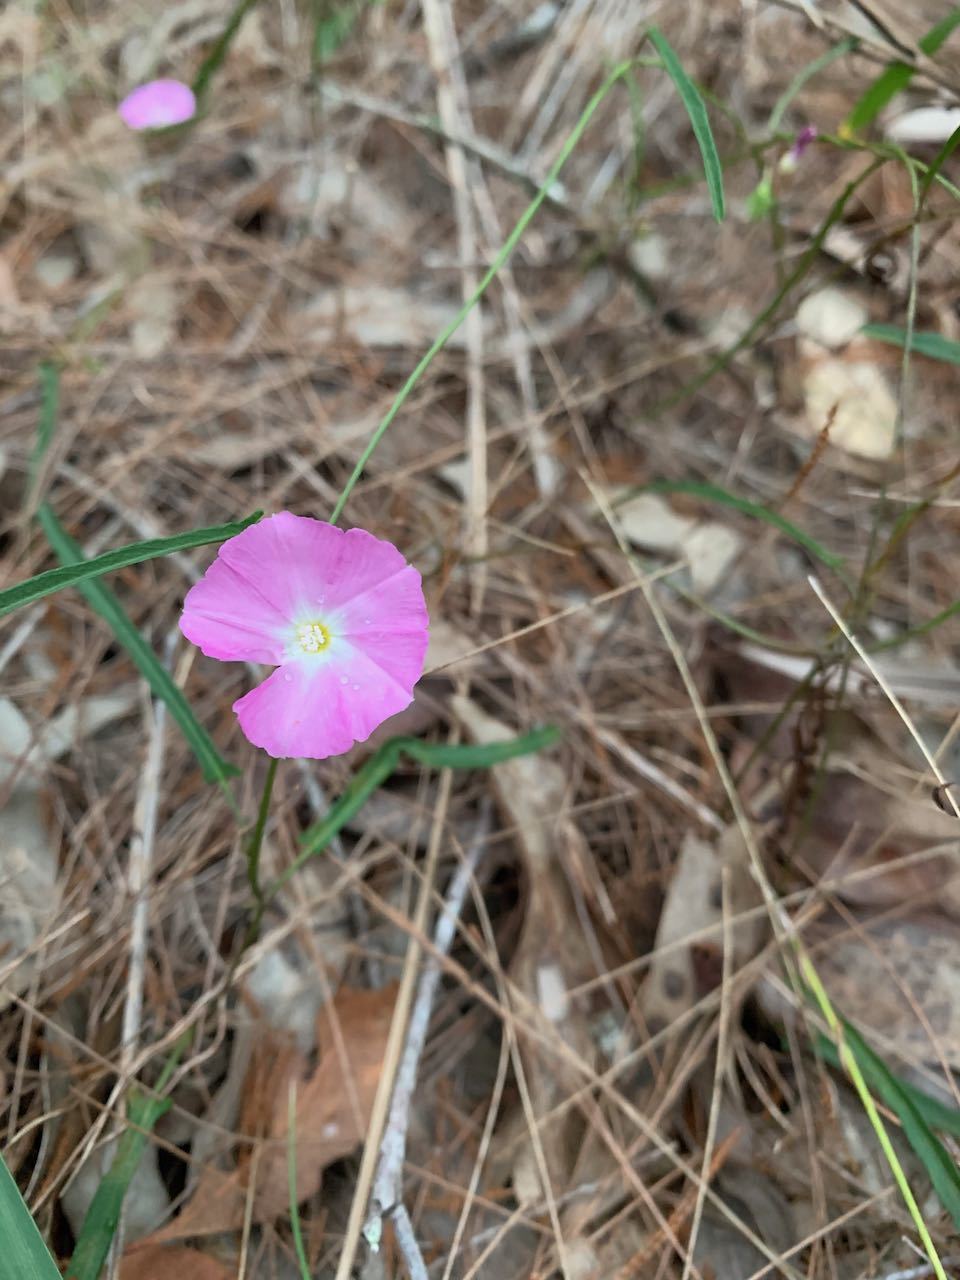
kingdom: Plantae
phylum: Tracheophyta
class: Magnoliopsida
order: Solanales
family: Convolvulaceae
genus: Polymeria
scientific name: Polymeria calycina
